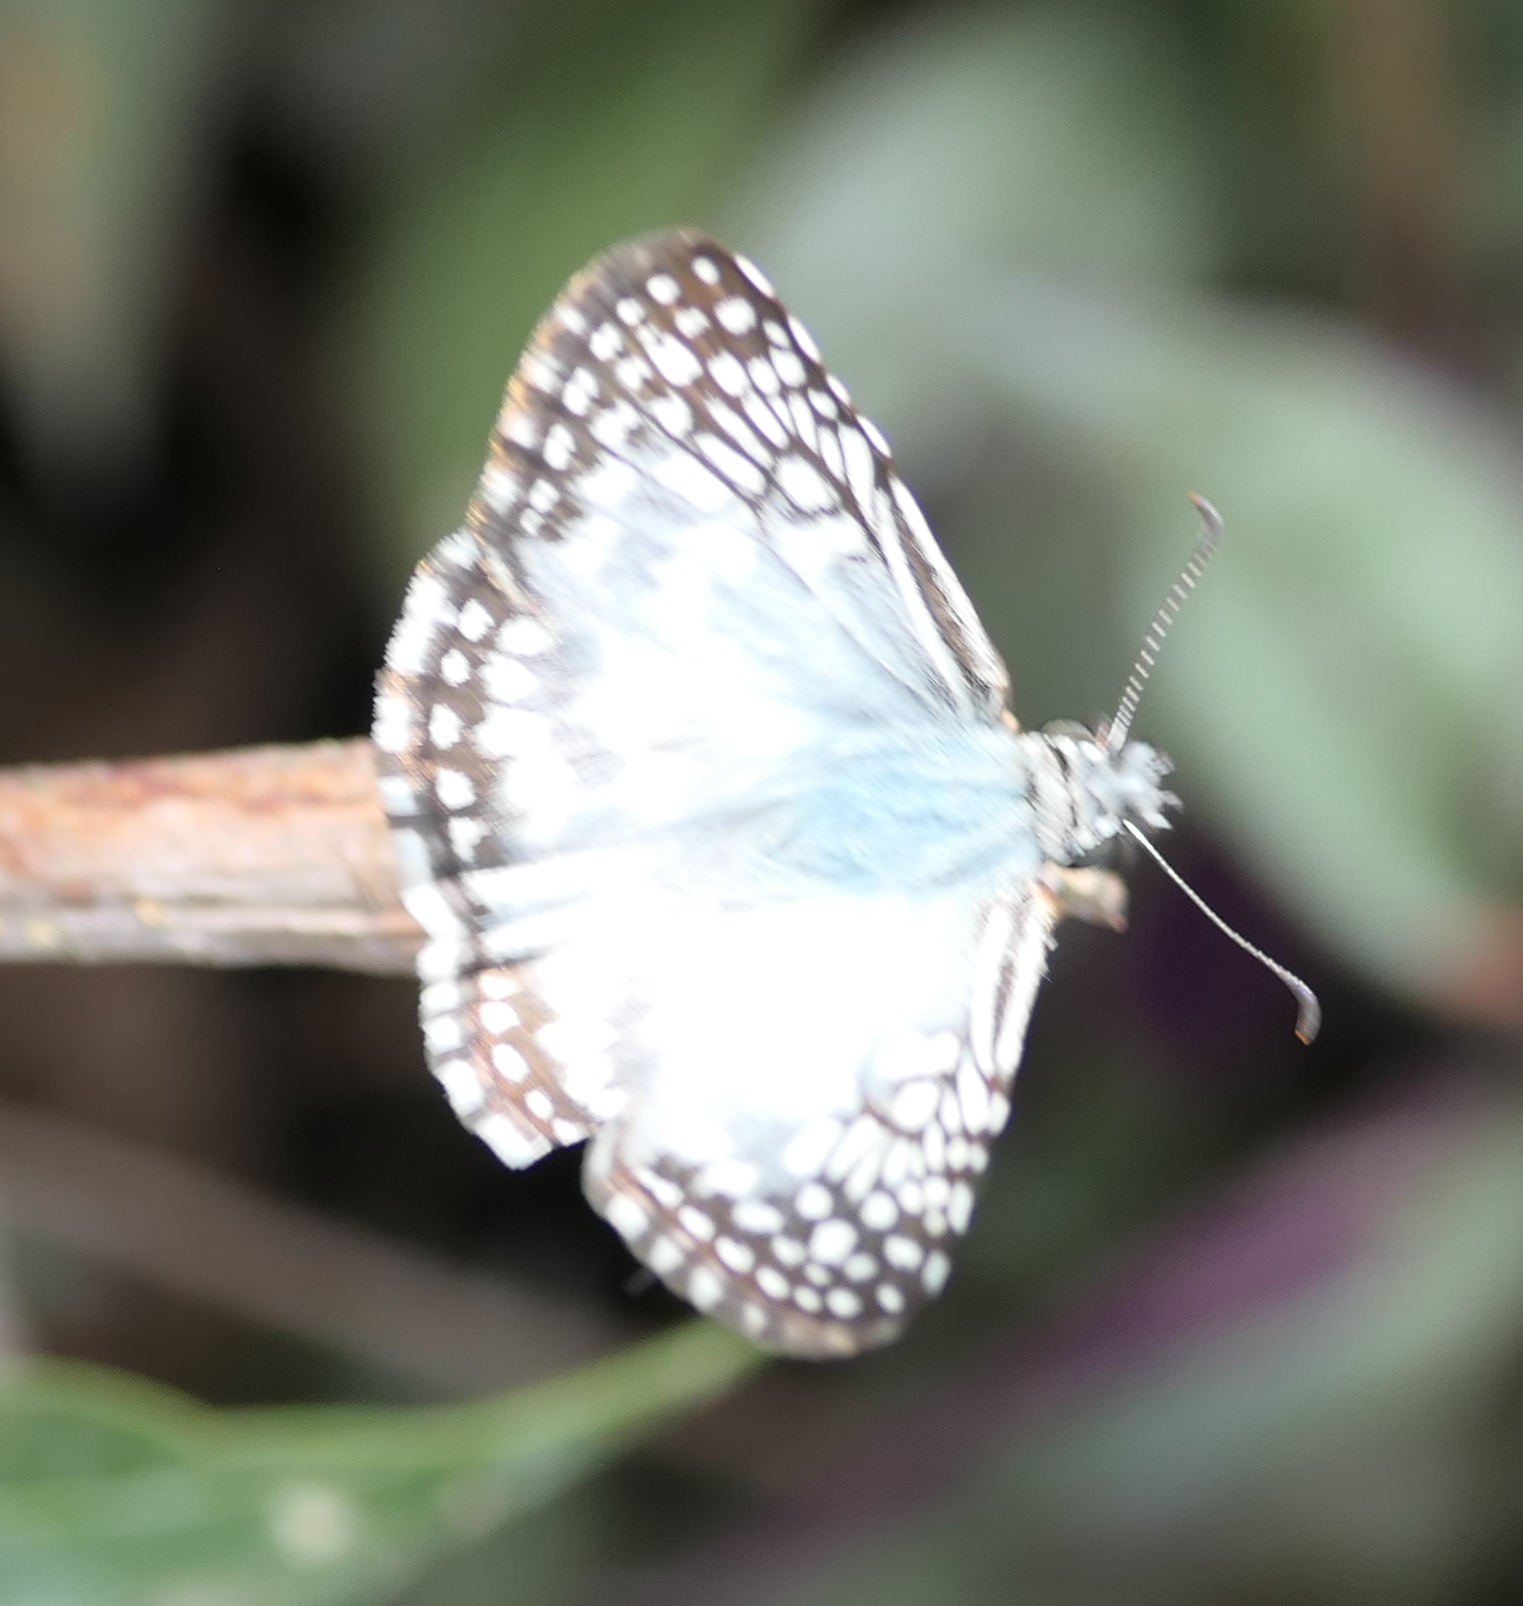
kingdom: Animalia
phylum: Arthropoda
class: Insecta
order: Lepidoptera
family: Hesperiidae
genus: Pyrgus
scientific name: Pyrgus oileus
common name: Tropical checkered-skipper
